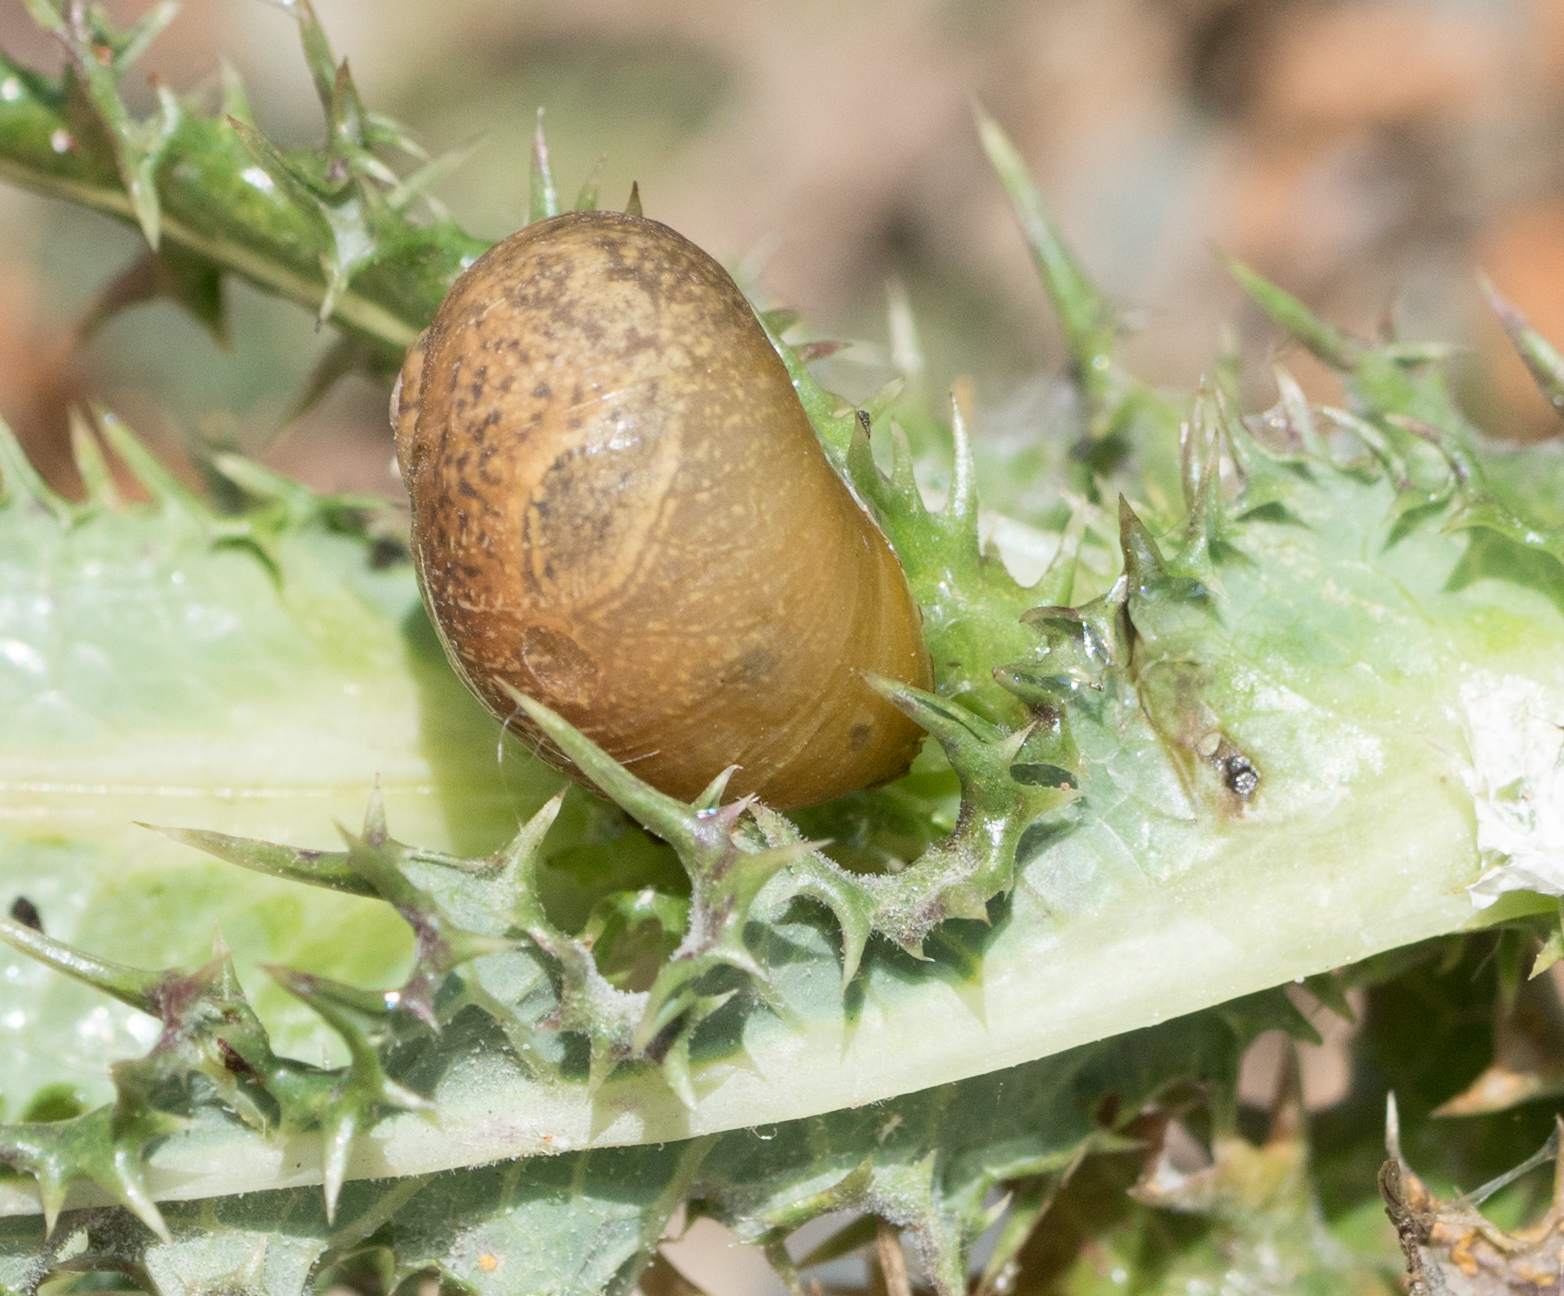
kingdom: Animalia
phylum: Mollusca
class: Gastropoda
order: Stylommatophora
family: Helicidae
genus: Cantareus
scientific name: Cantareus apertus
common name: Green gardensnail
